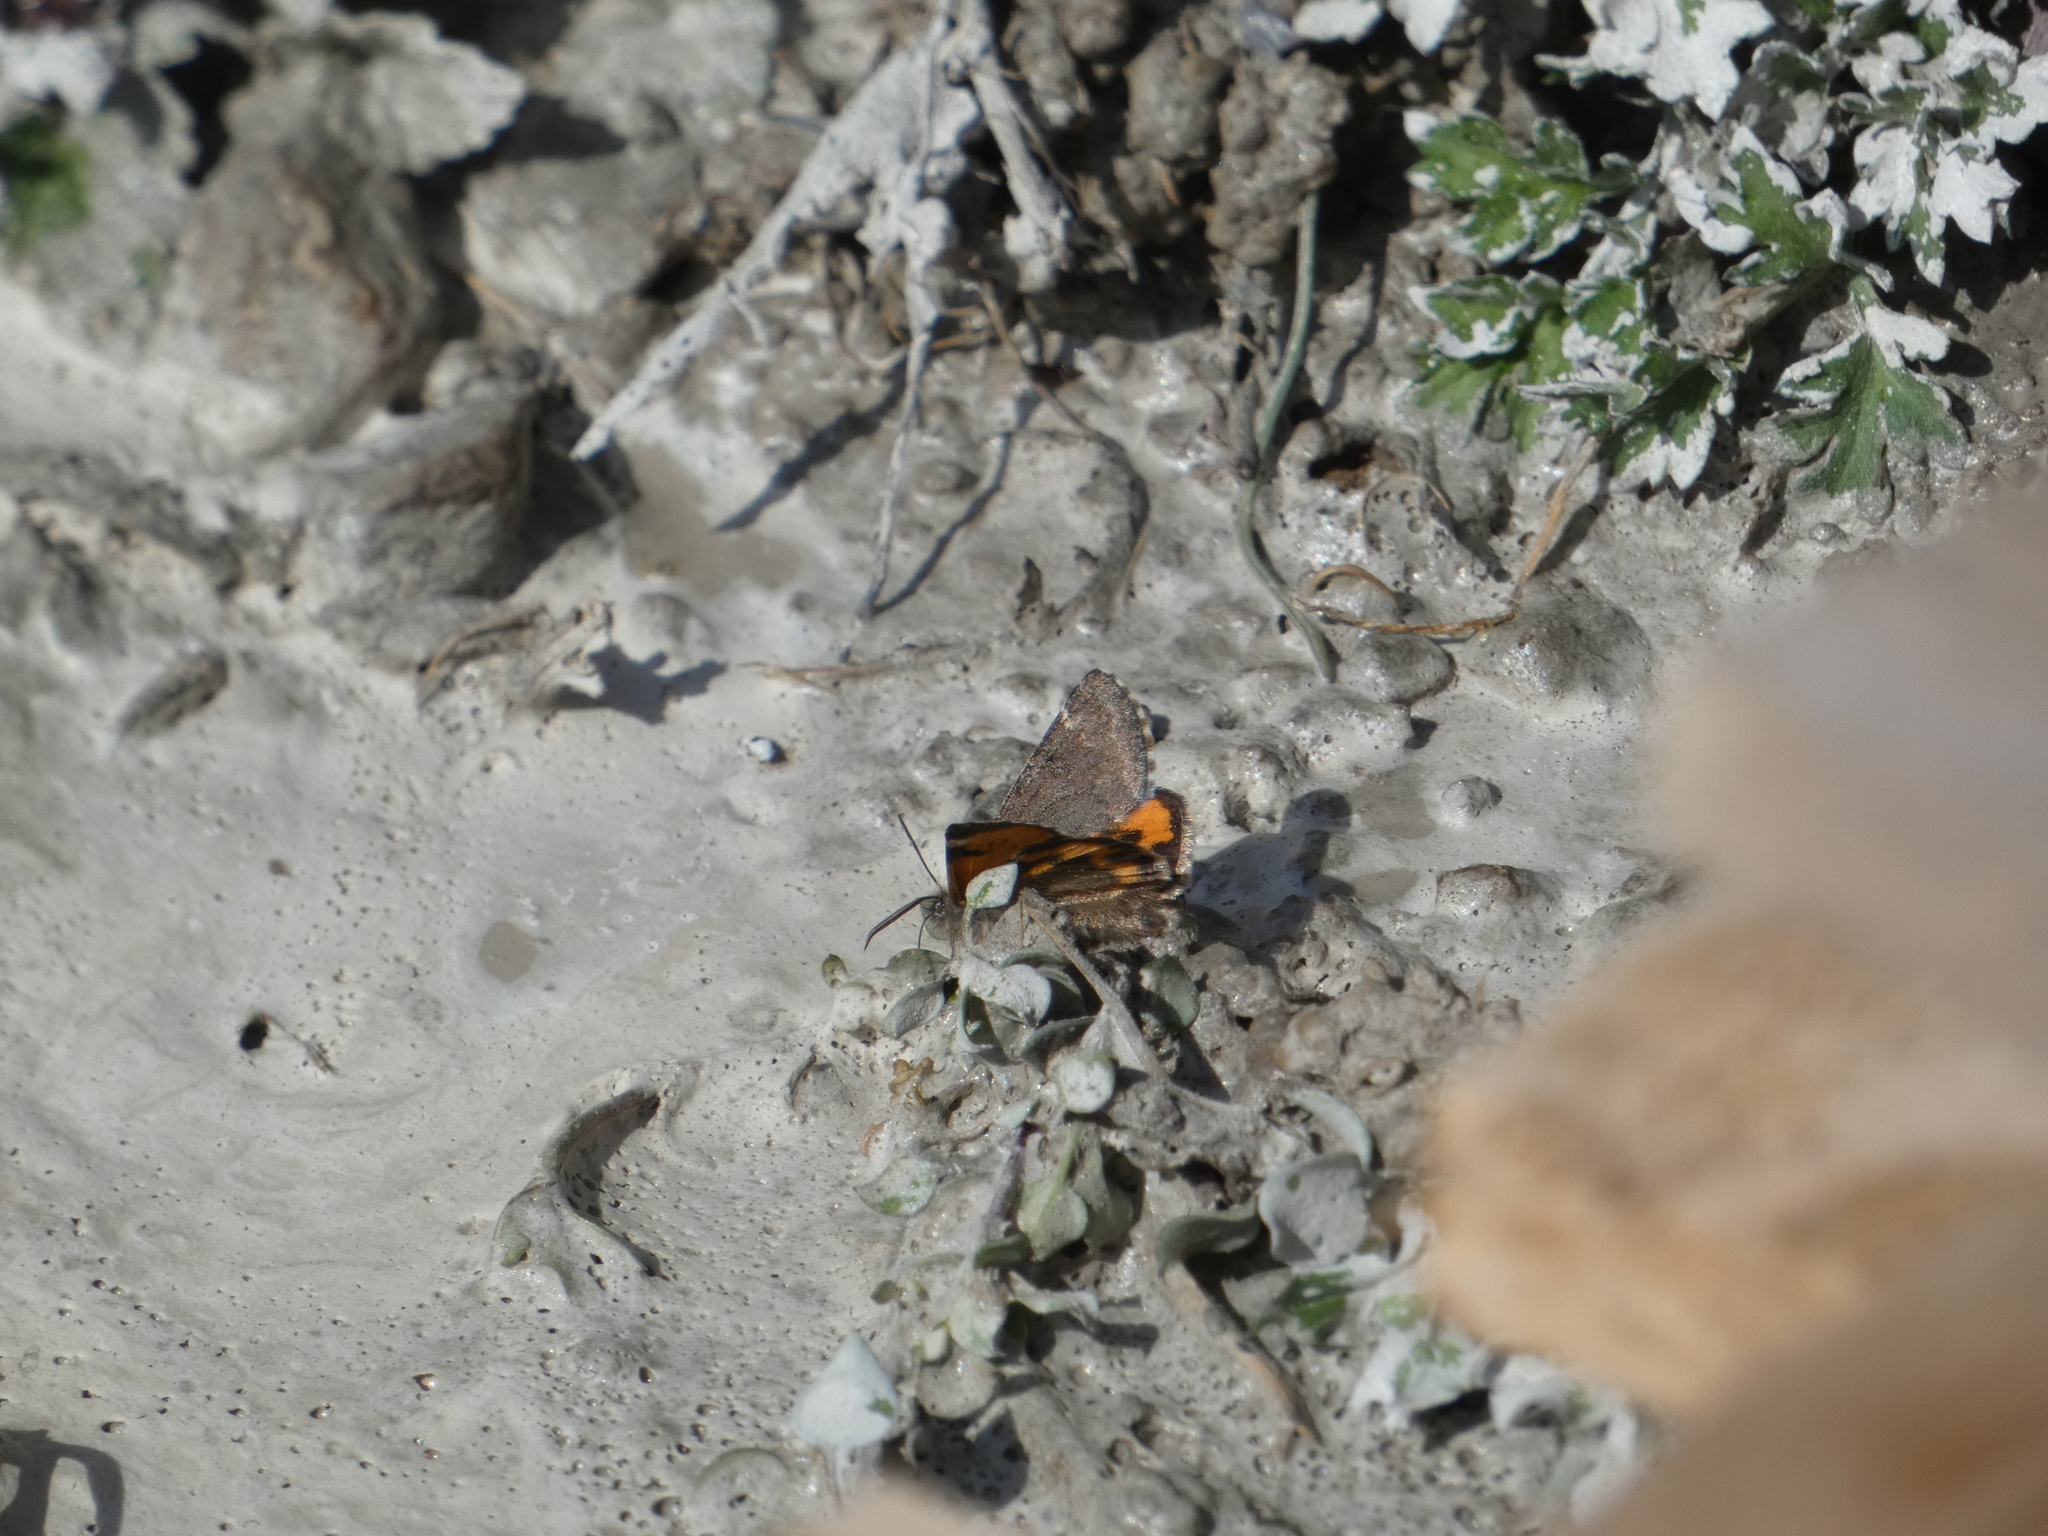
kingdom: Animalia
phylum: Arthropoda
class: Insecta
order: Lepidoptera
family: Geometridae
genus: Archiearis
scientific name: Archiearis notha
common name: Light orange underwing
